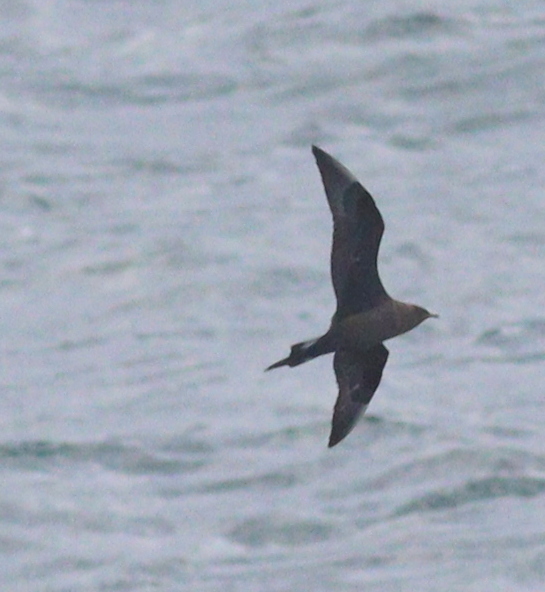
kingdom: Animalia
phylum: Chordata
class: Aves
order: Charadriiformes
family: Stercorariidae
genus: Stercorarius
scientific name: Stercorarius parasiticus
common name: Parasitic jaeger
